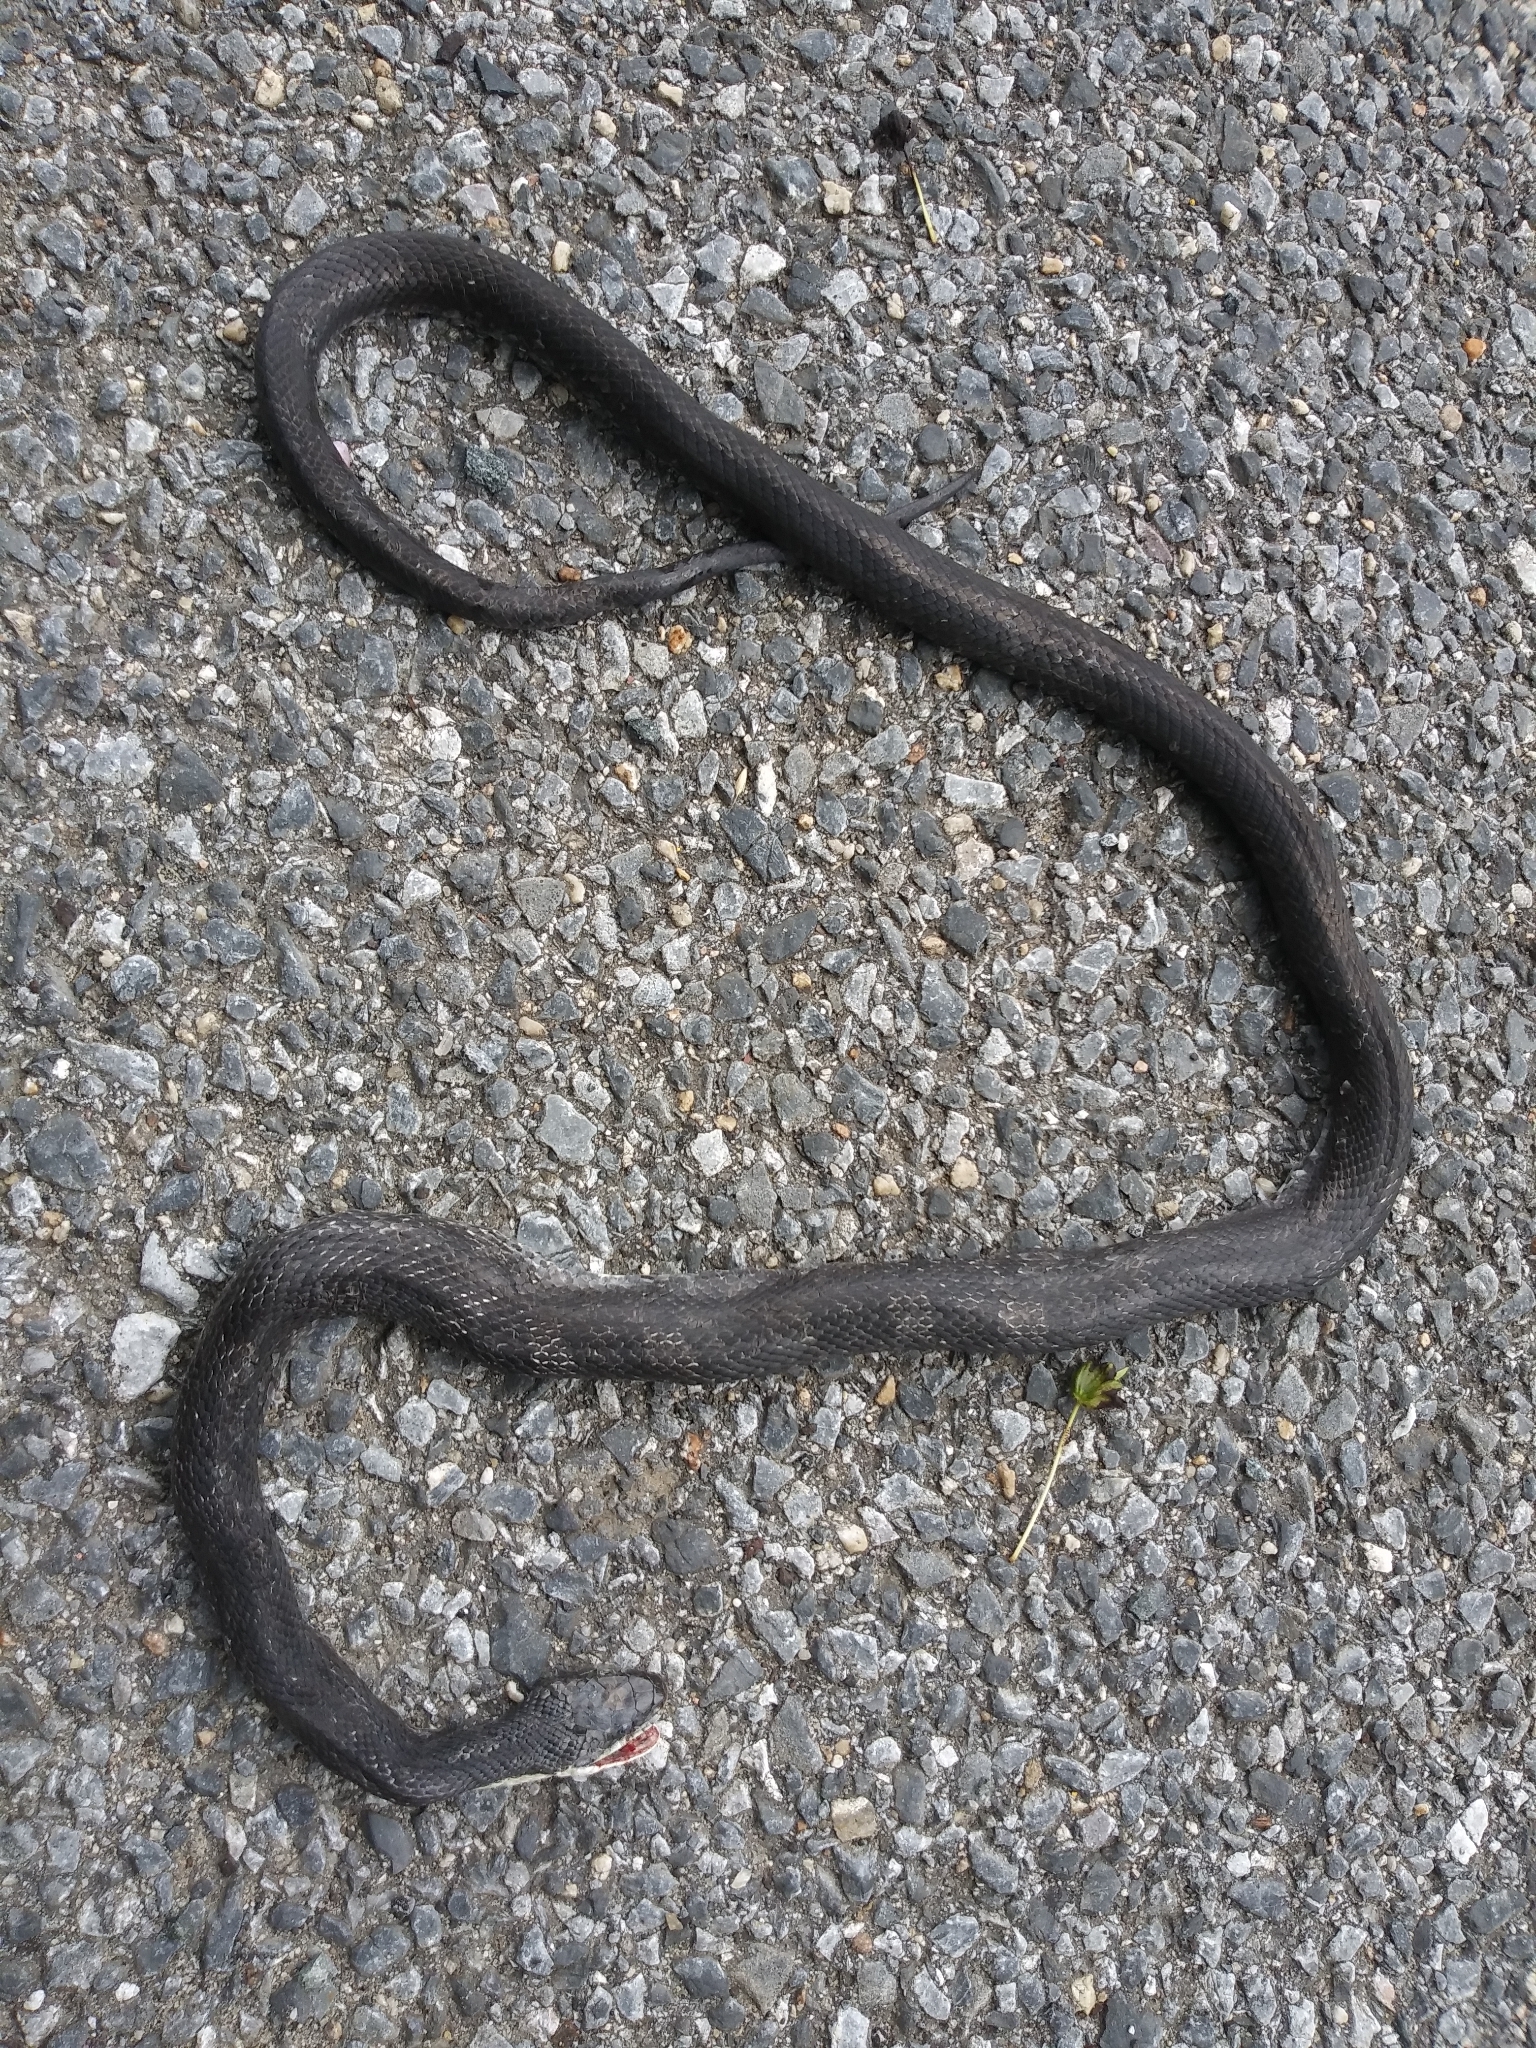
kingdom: Animalia
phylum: Chordata
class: Squamata
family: Colubridae
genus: Pantherophis
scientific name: Pantherophis
